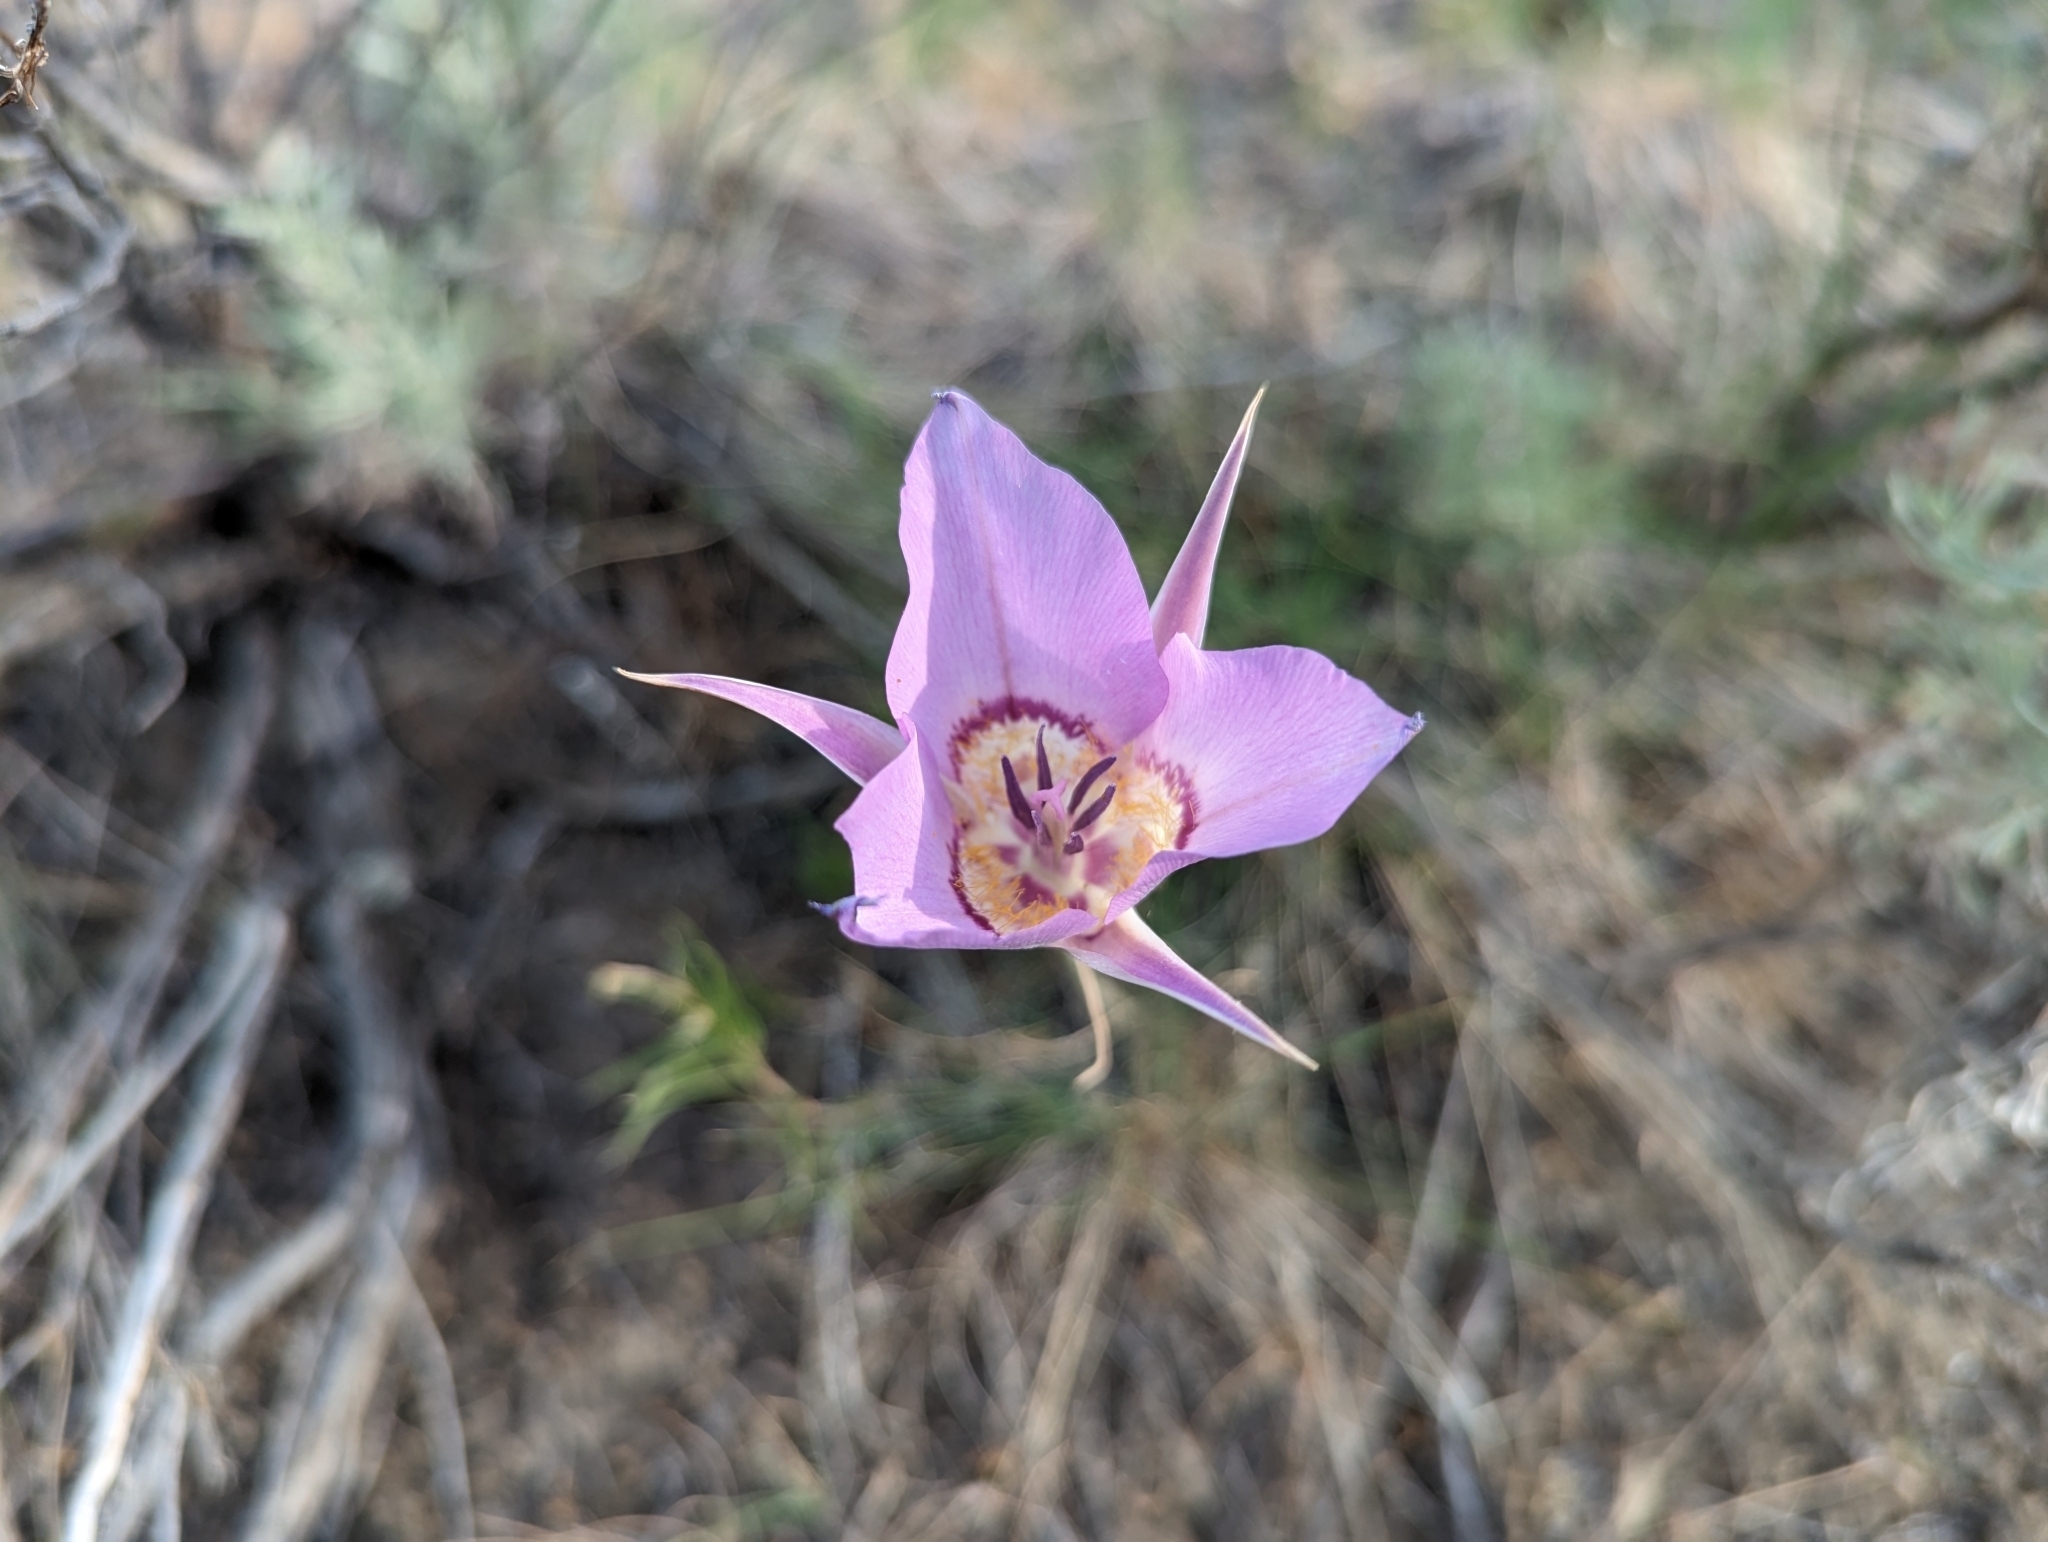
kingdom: Plantae
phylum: Tracheophyta
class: Liliopsida
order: Liliales
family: Liliaceae
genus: Calochortus
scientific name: Calochortus macrocarpus
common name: Green-band mariposa lily
